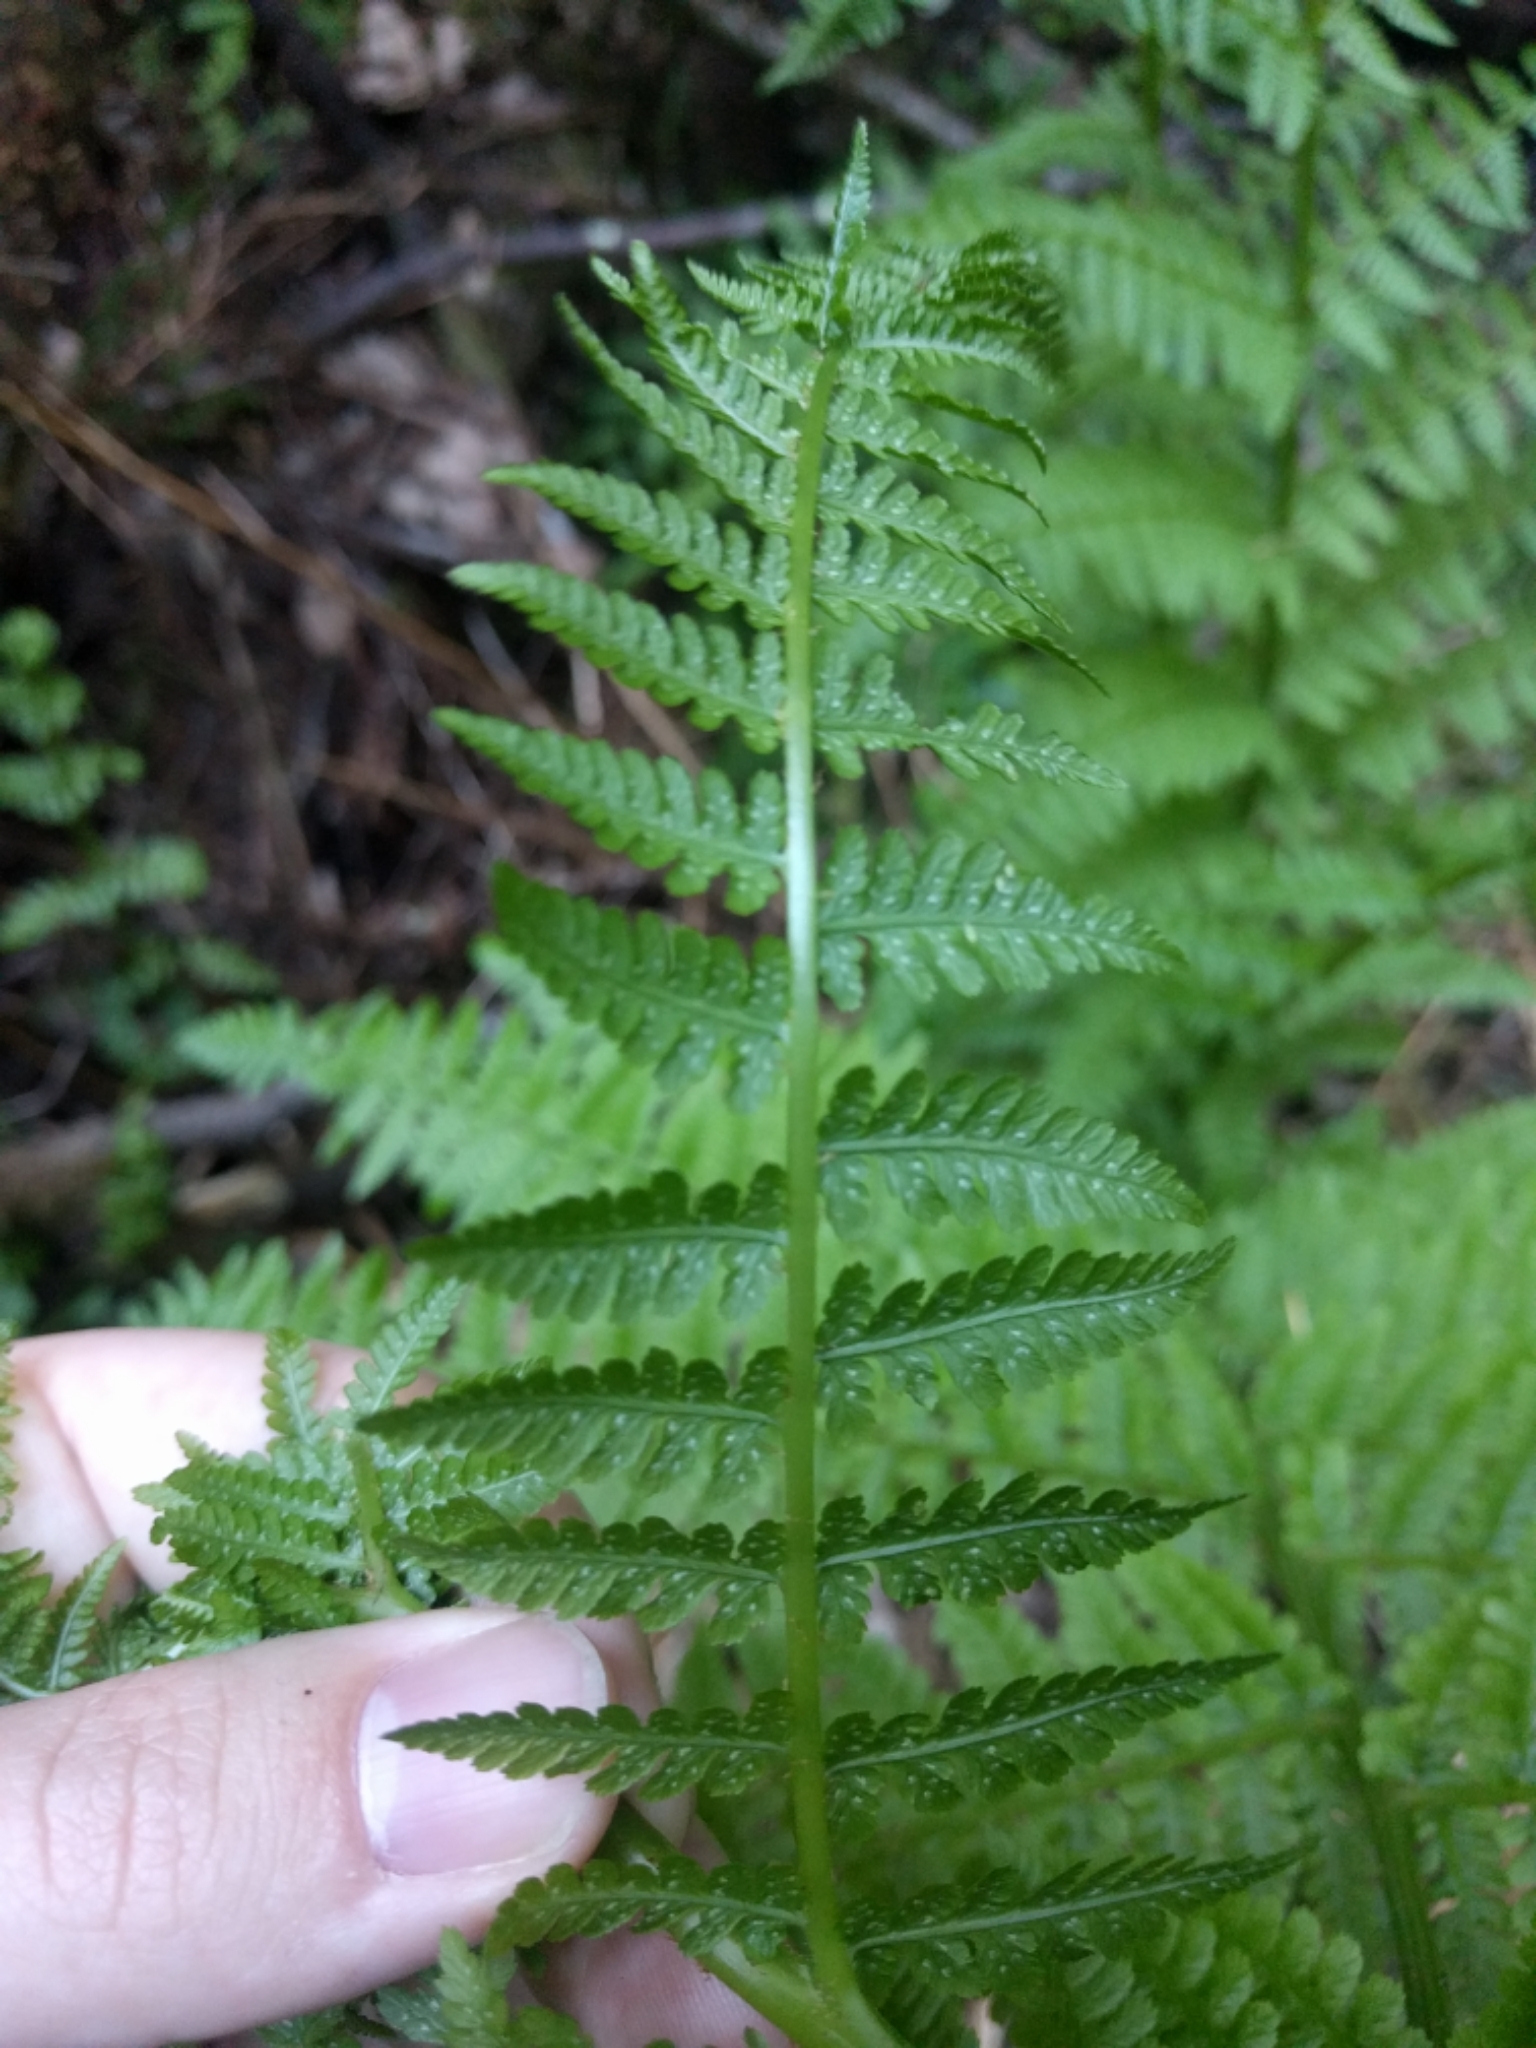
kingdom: Plantae
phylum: Tracheophyta
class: Polypodiopsida
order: Polypodiales
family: Athyriaceae
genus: Athyrium
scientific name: Athyrium filix-femina
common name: Lady fern
